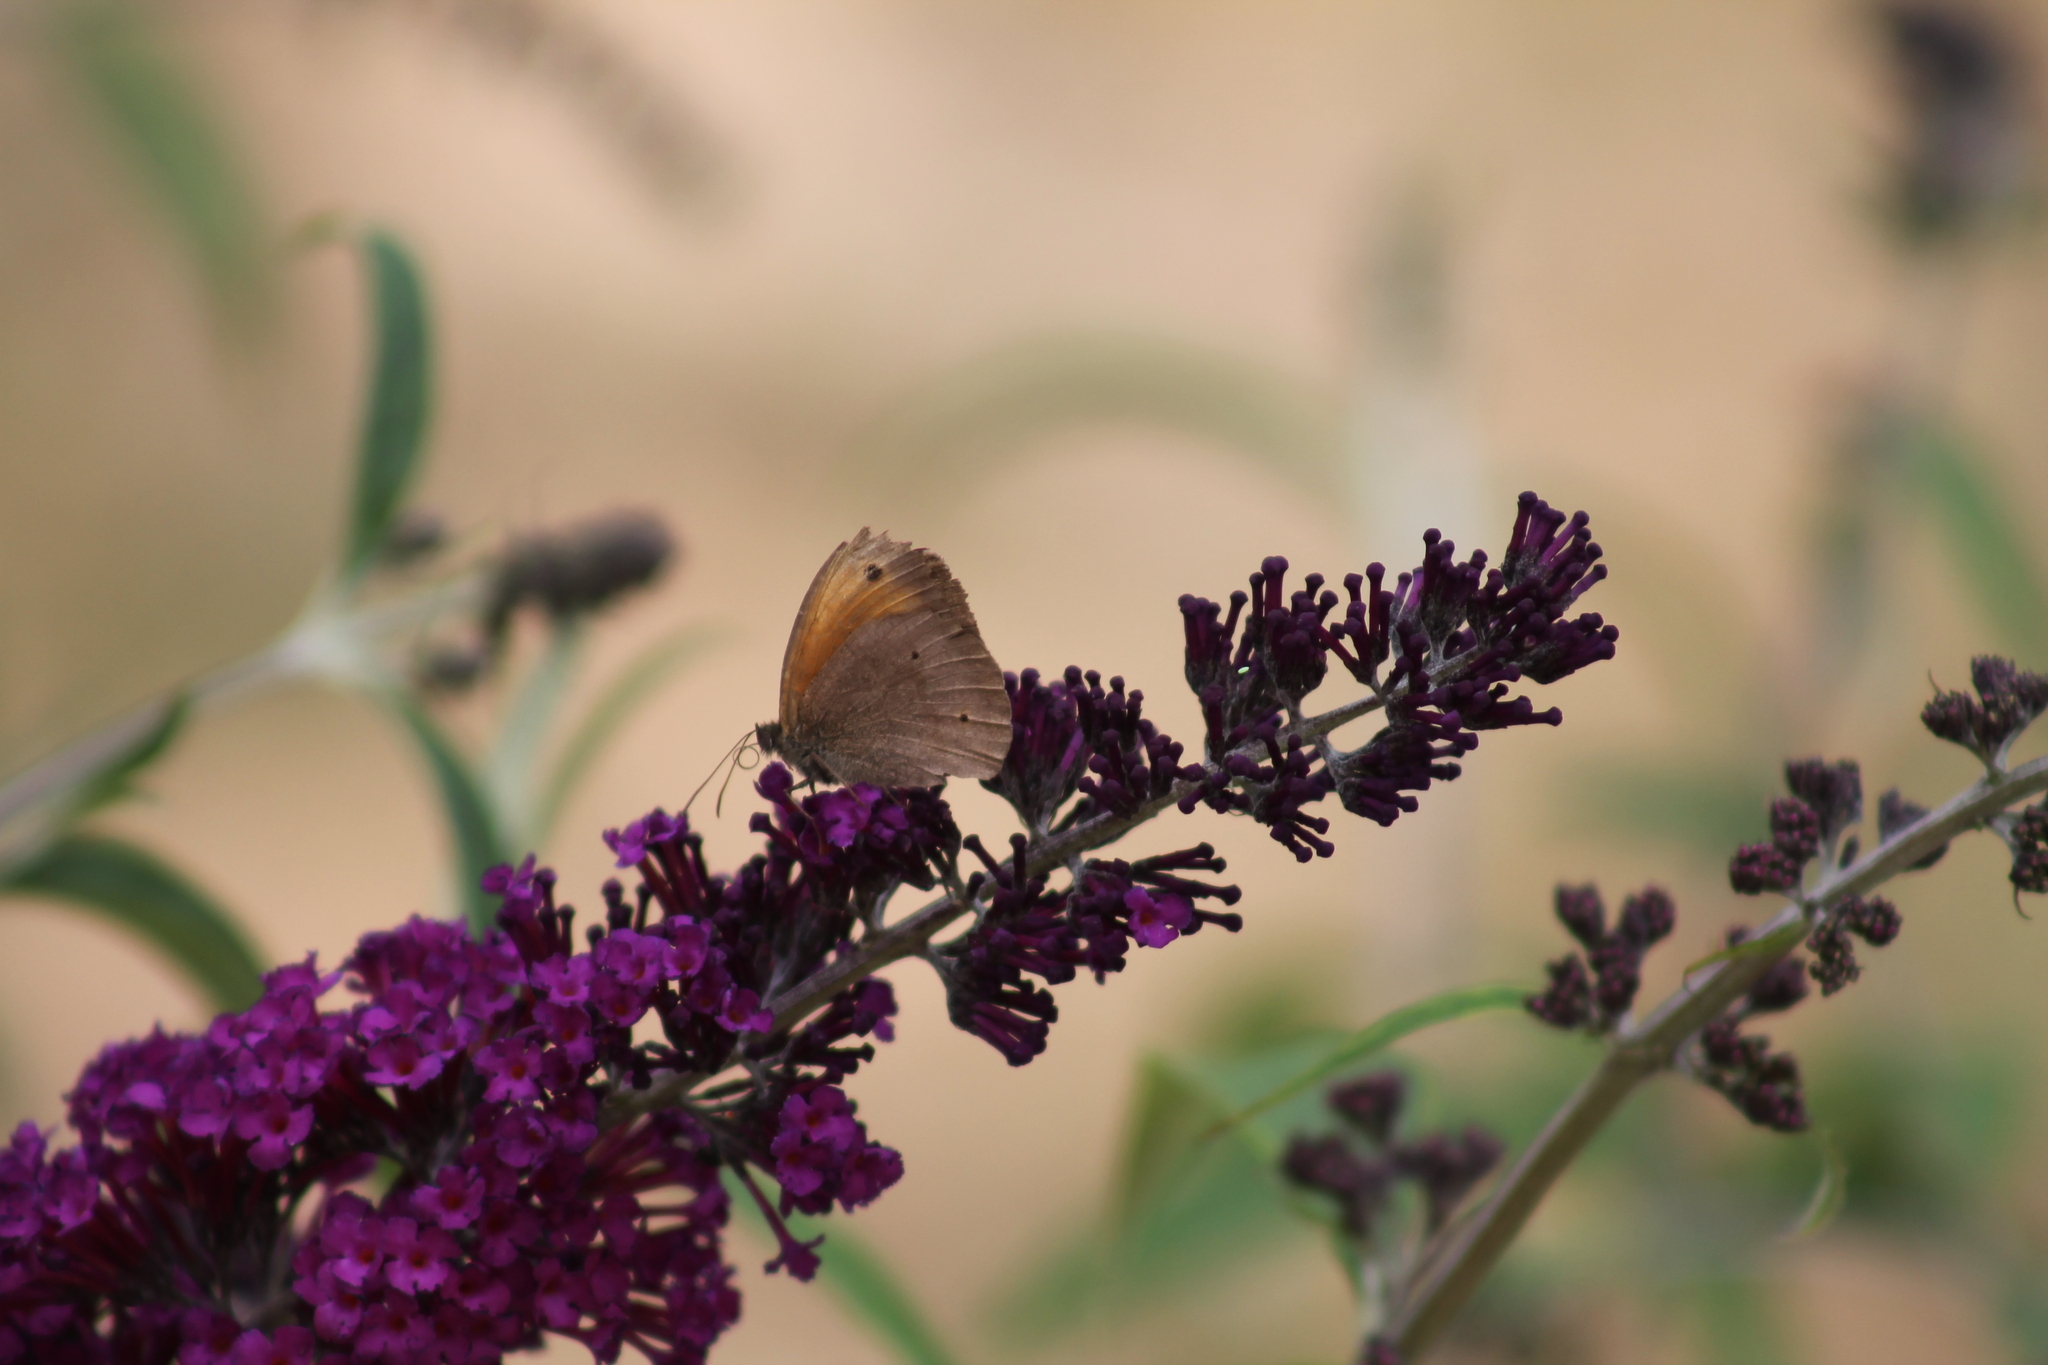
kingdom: Animalia
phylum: Arthropoda
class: Insecta
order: Lepidoptera
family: Nymphalidae
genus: Maniola
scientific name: Maniola jurtina
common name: Meadow brown
